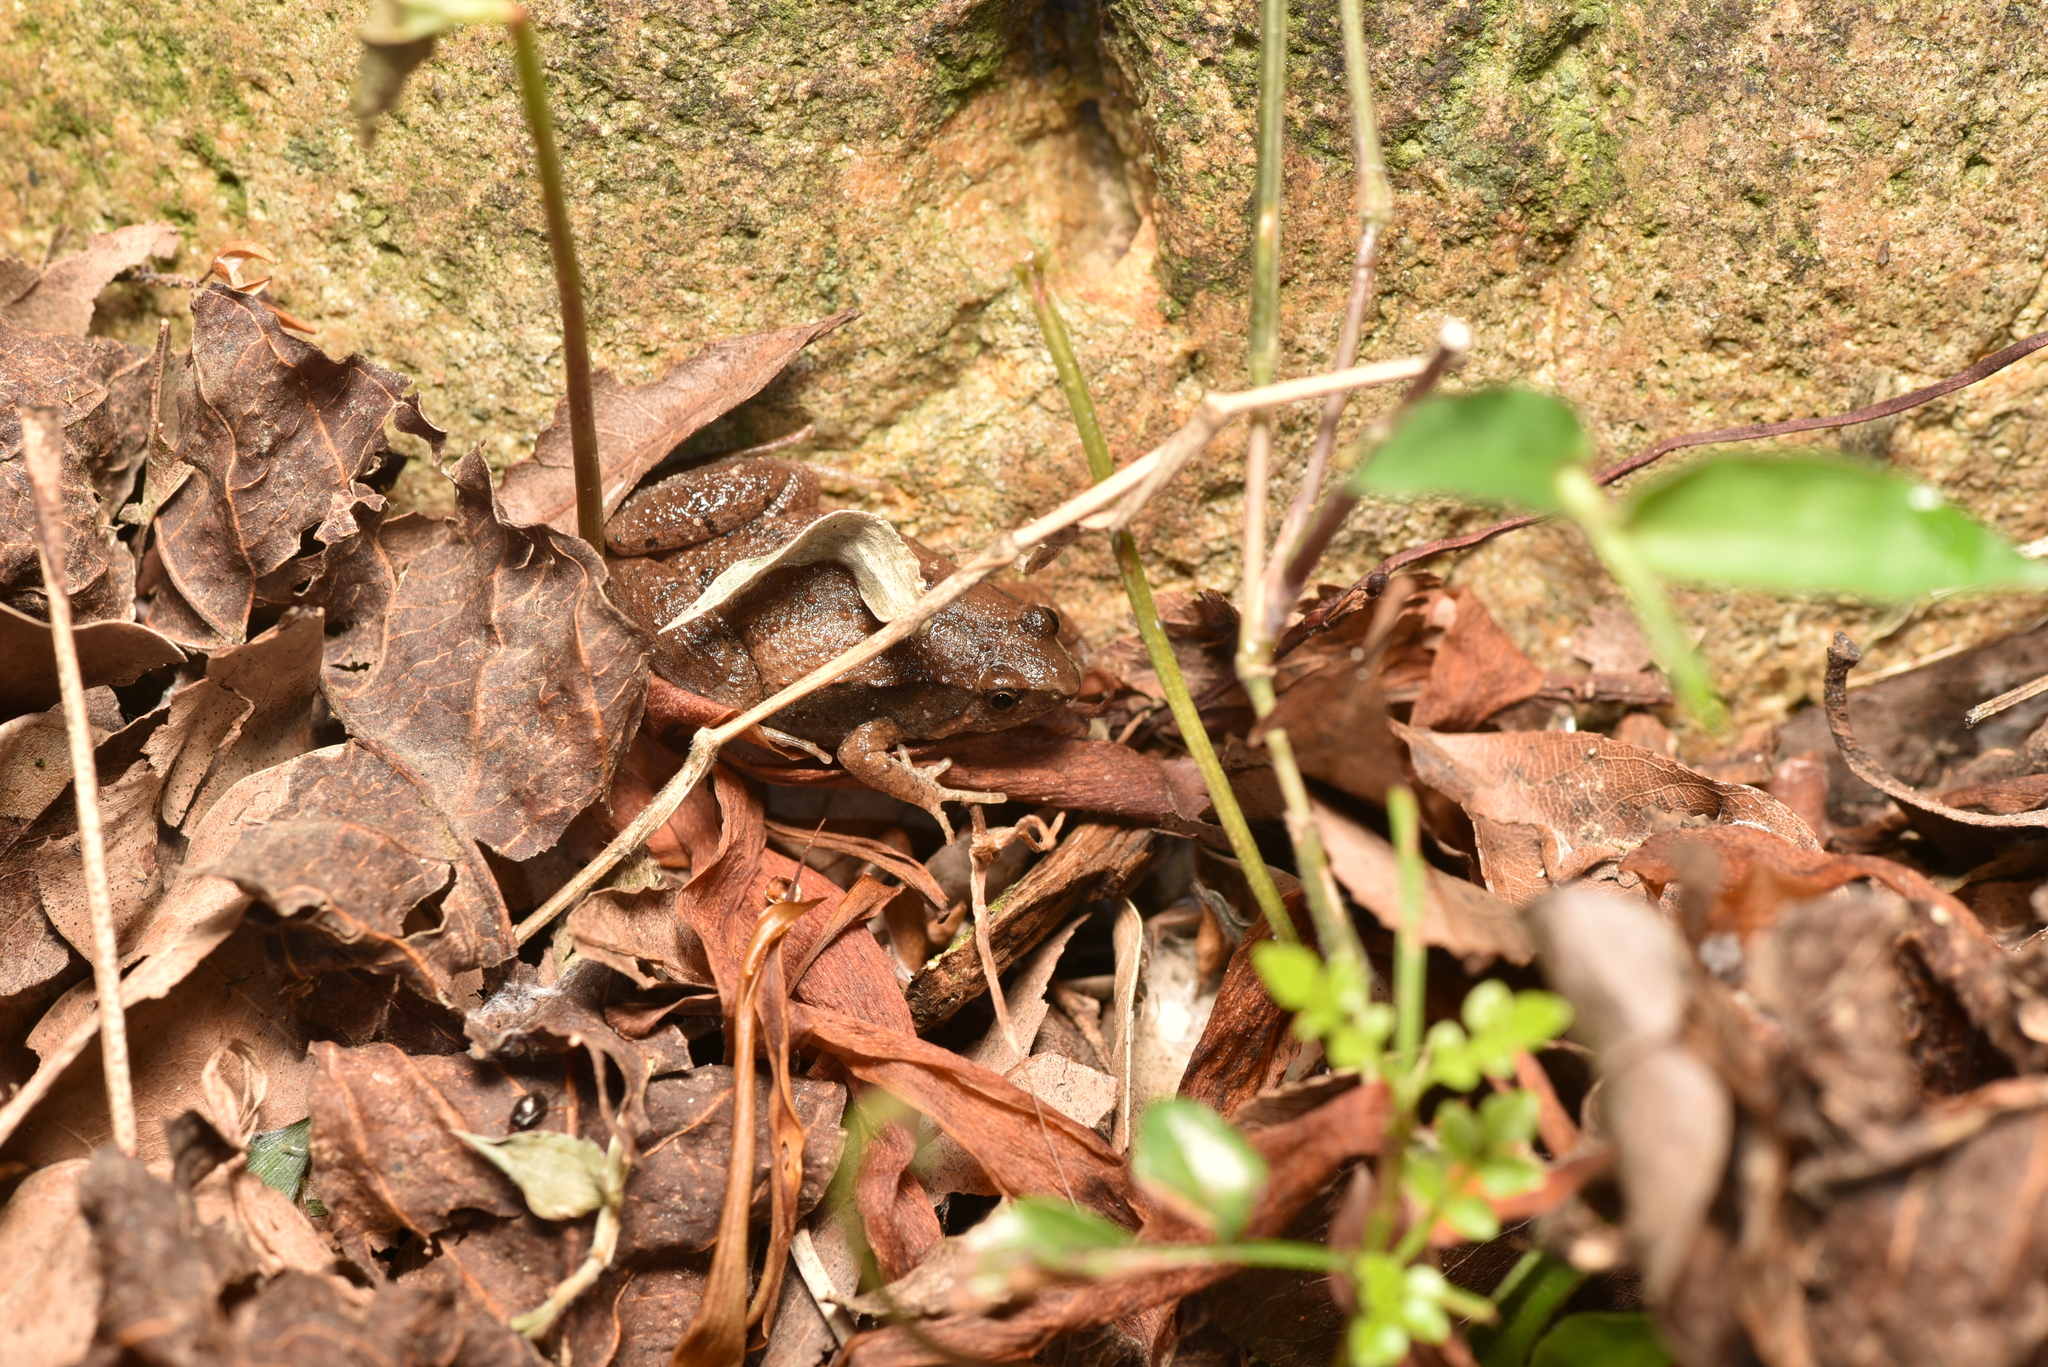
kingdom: Animalia
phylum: Chordata
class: Amphibia
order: Anura
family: Microhylidae
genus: Microhyla
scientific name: Microhyla fissipes
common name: Ornate narrow-mouthed frog
